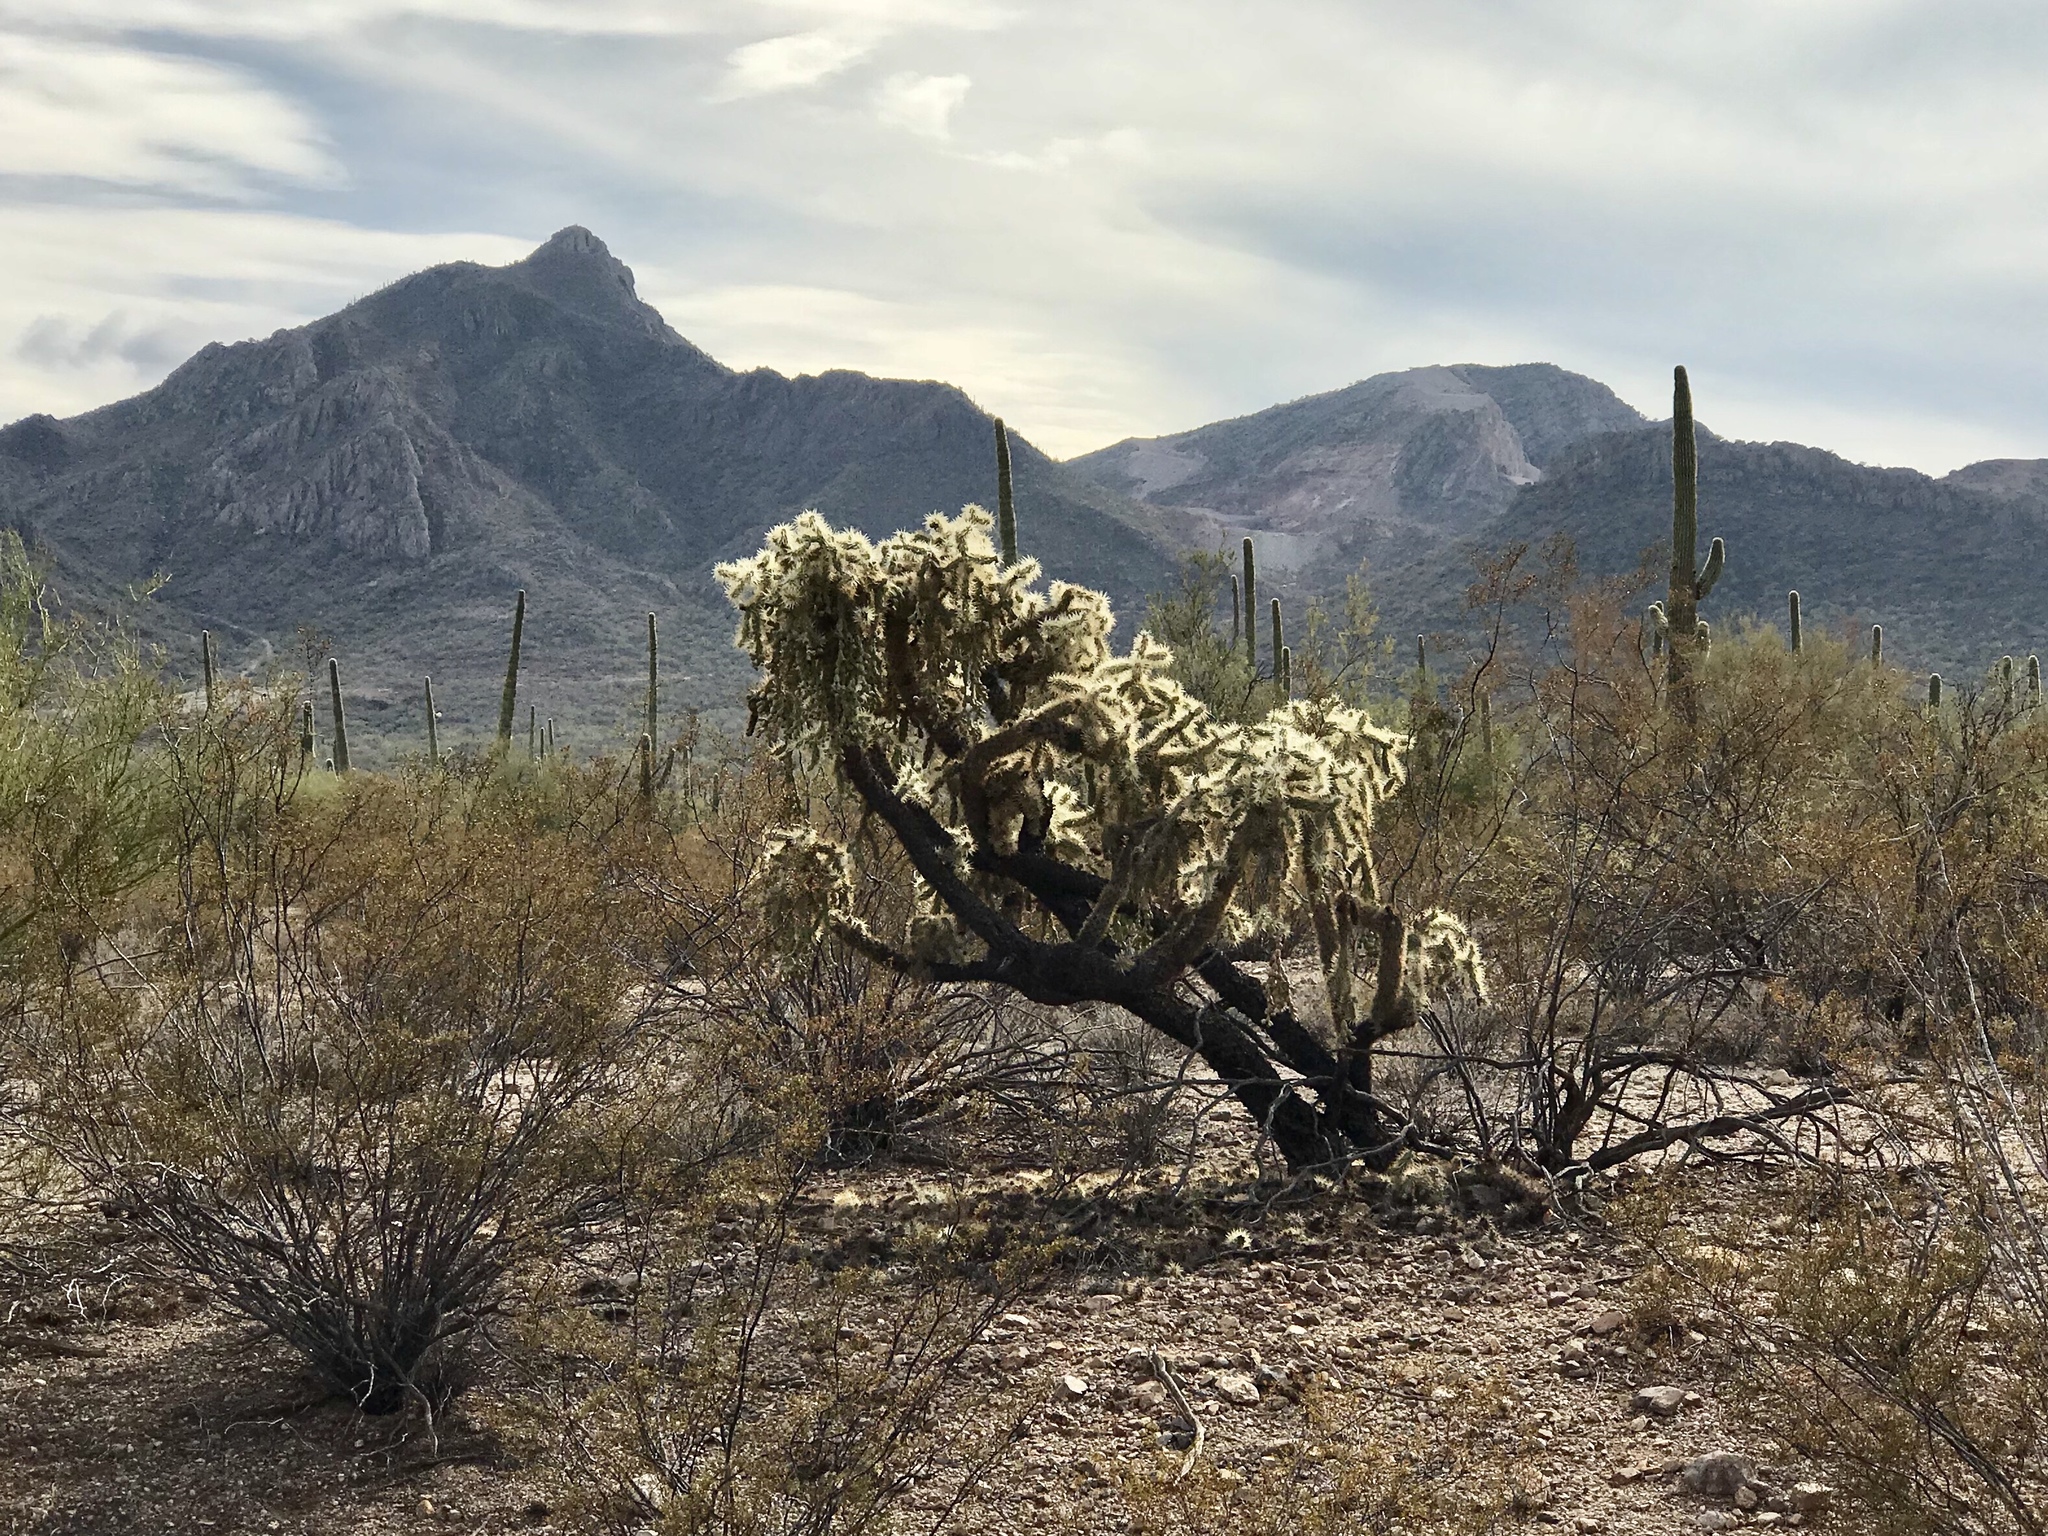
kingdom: Plantae
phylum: Tracheophyta
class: Magnoliopsida
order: Caryophyllales
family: Cactaceae
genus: Cylindropuntia
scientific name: Cylindropuntia fulgida
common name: Jumping cholla
